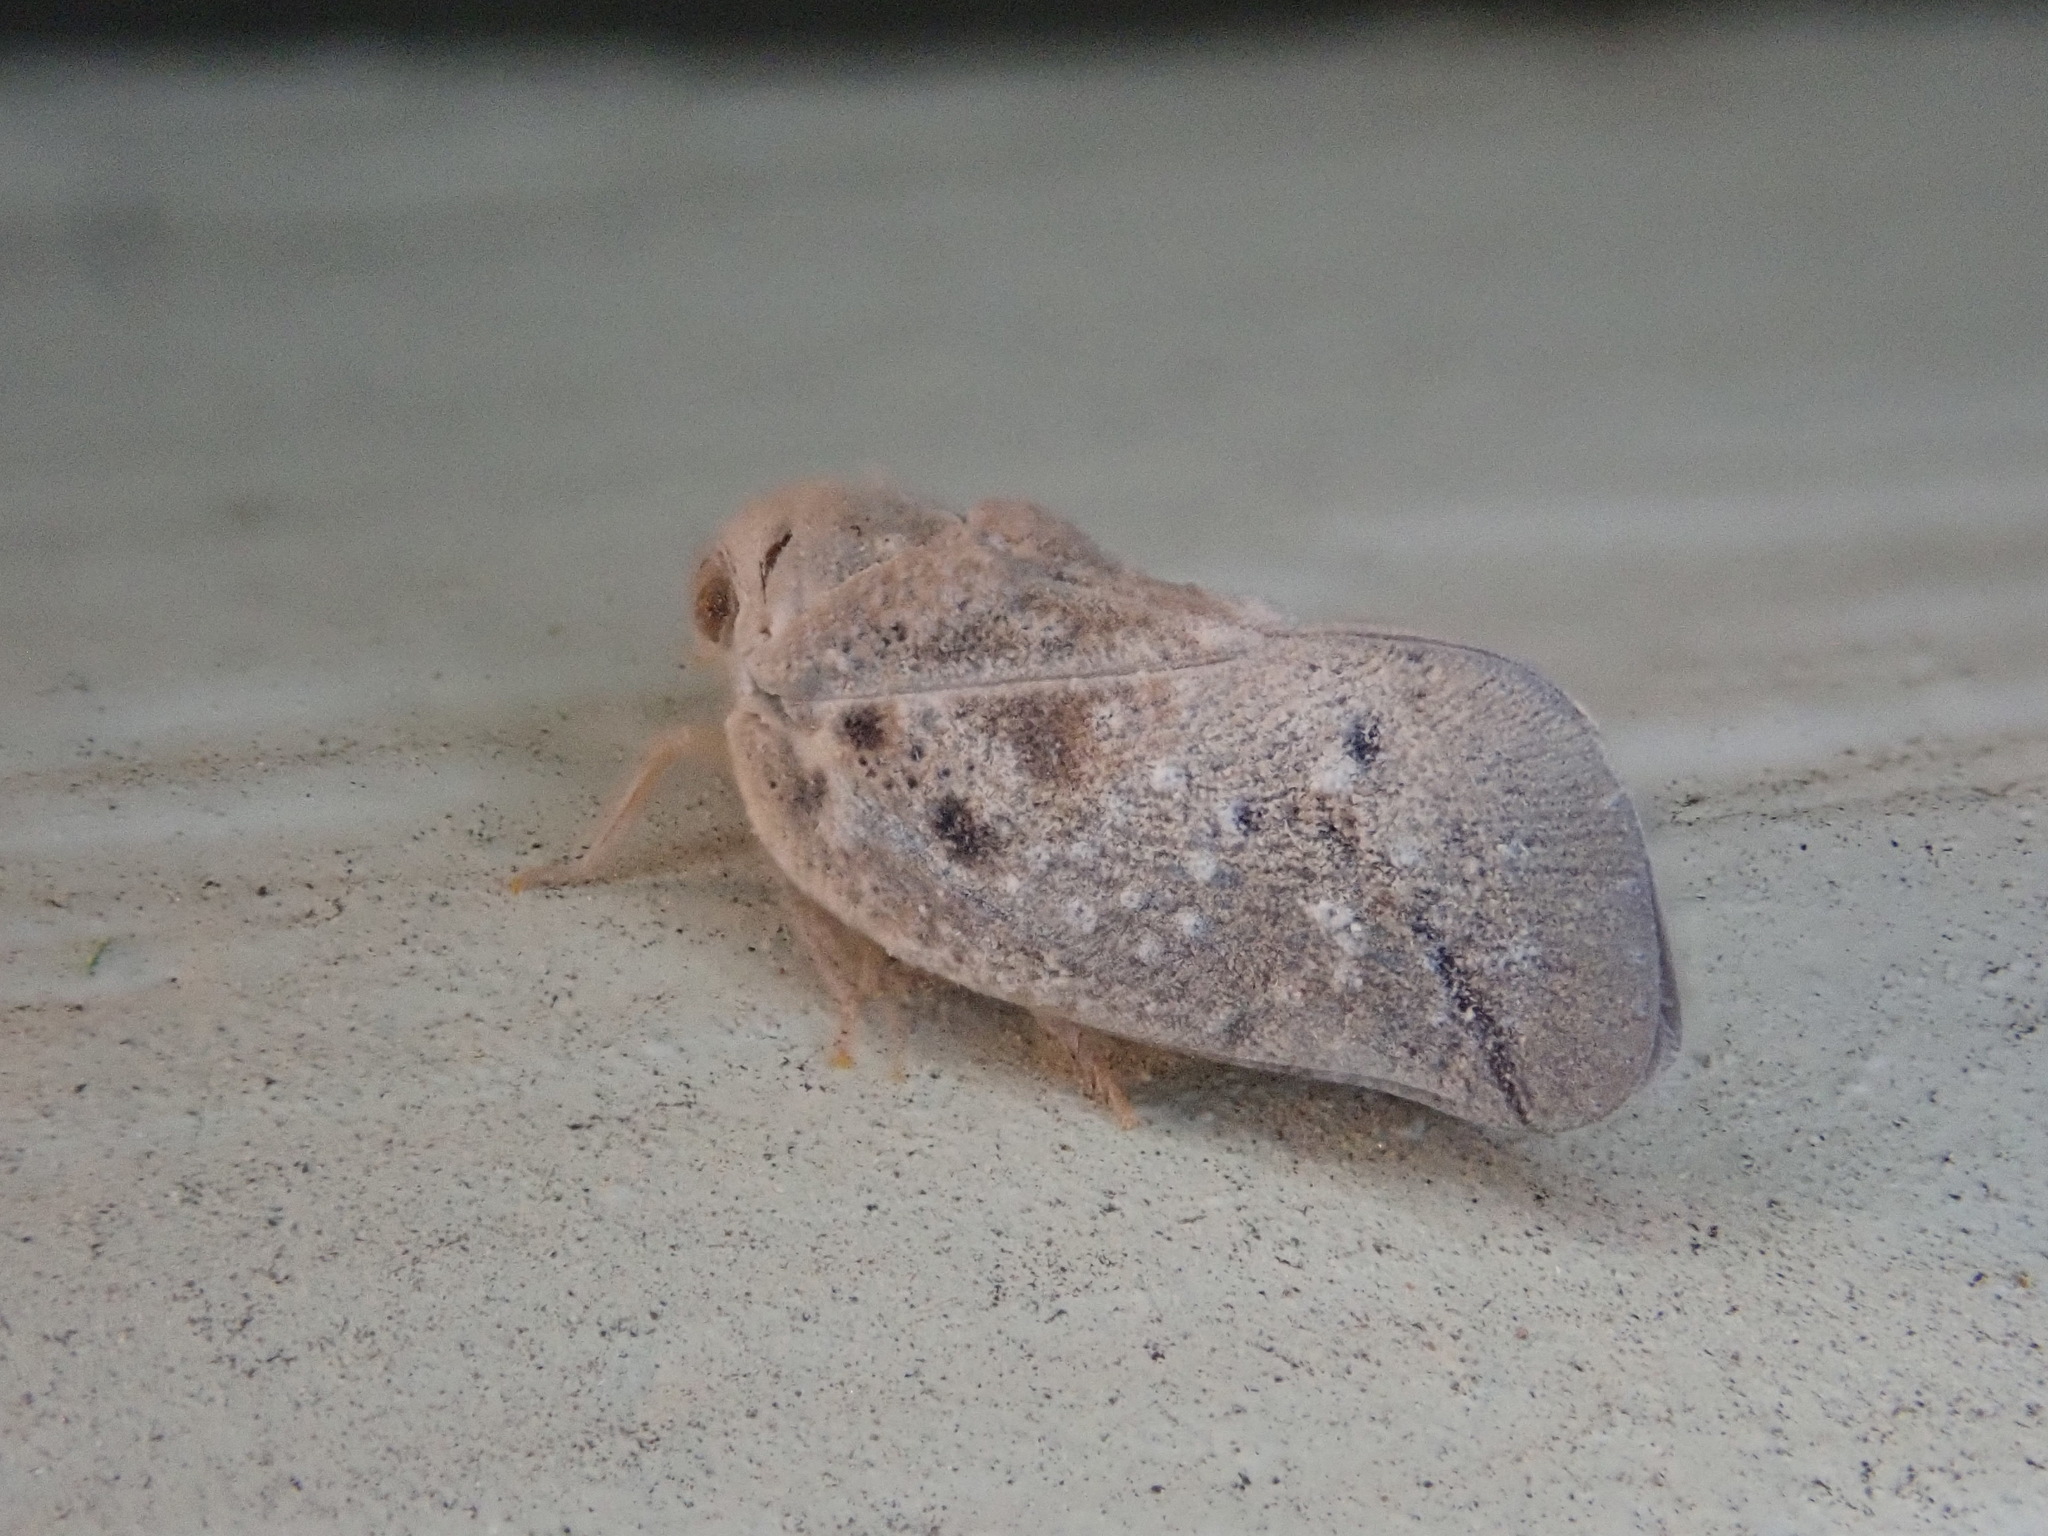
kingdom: Animalia
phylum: Arthropoda
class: Insecta
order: Hemiptera
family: Flatidae
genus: Metcalfa
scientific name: Metcalfa pruinosa
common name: Citrus flatid planthopper
